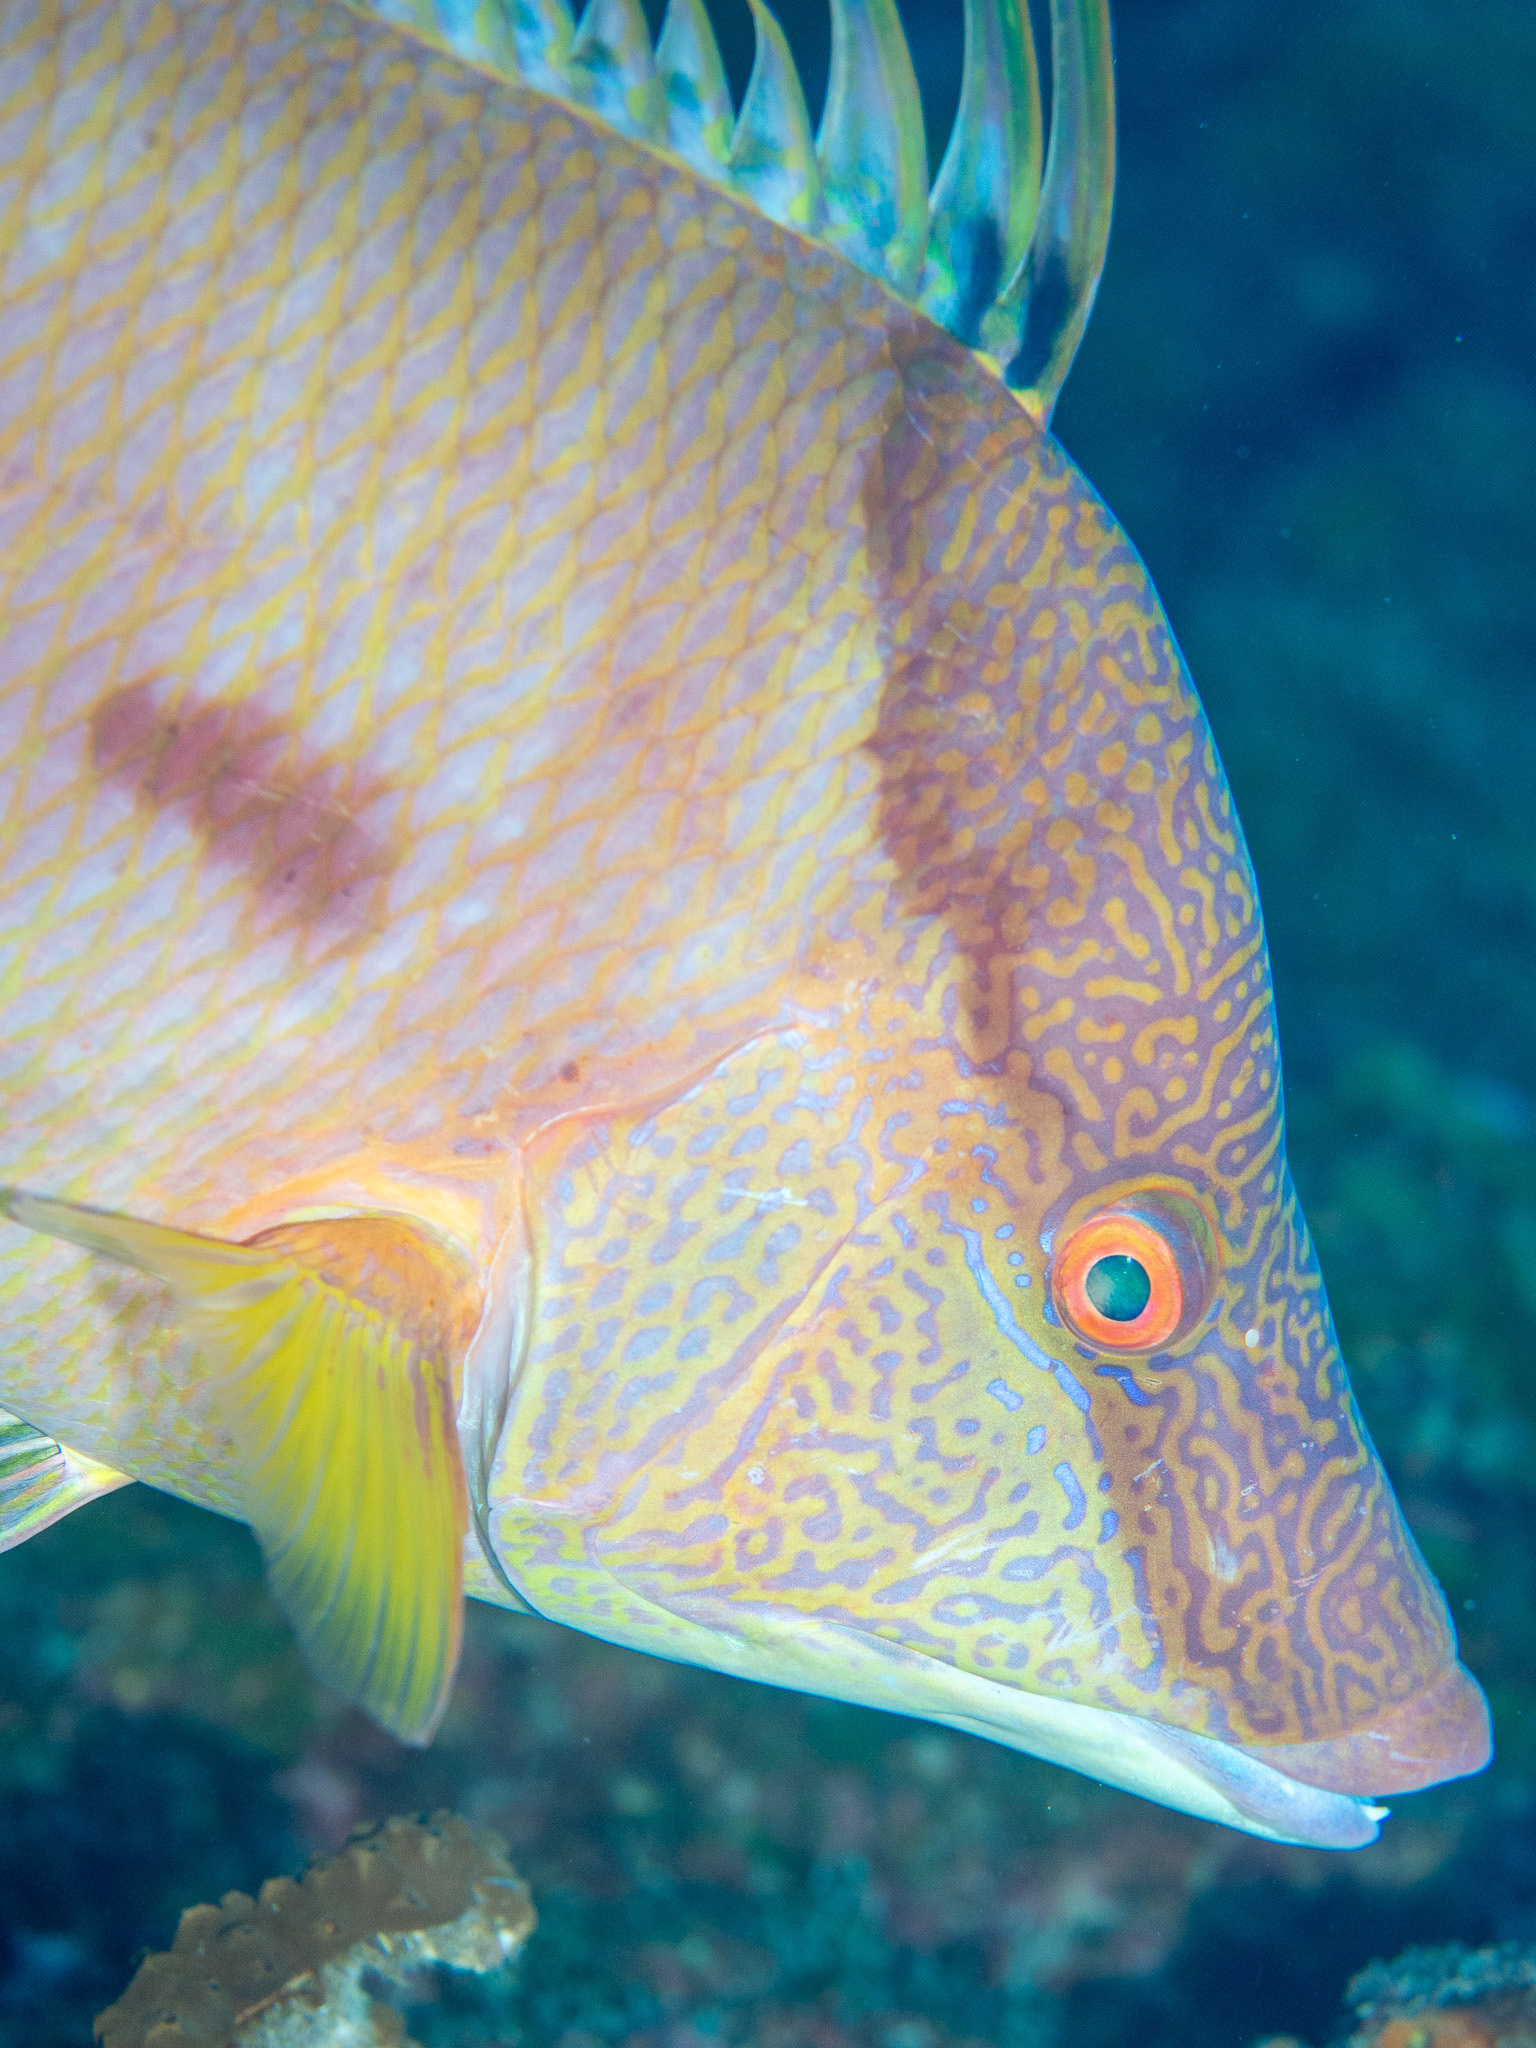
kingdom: Animalia
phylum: Chordata
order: Perciformes
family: Labridae
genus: Lachnolaimus
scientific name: Lachnolaimus maximus
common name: Hogfish
